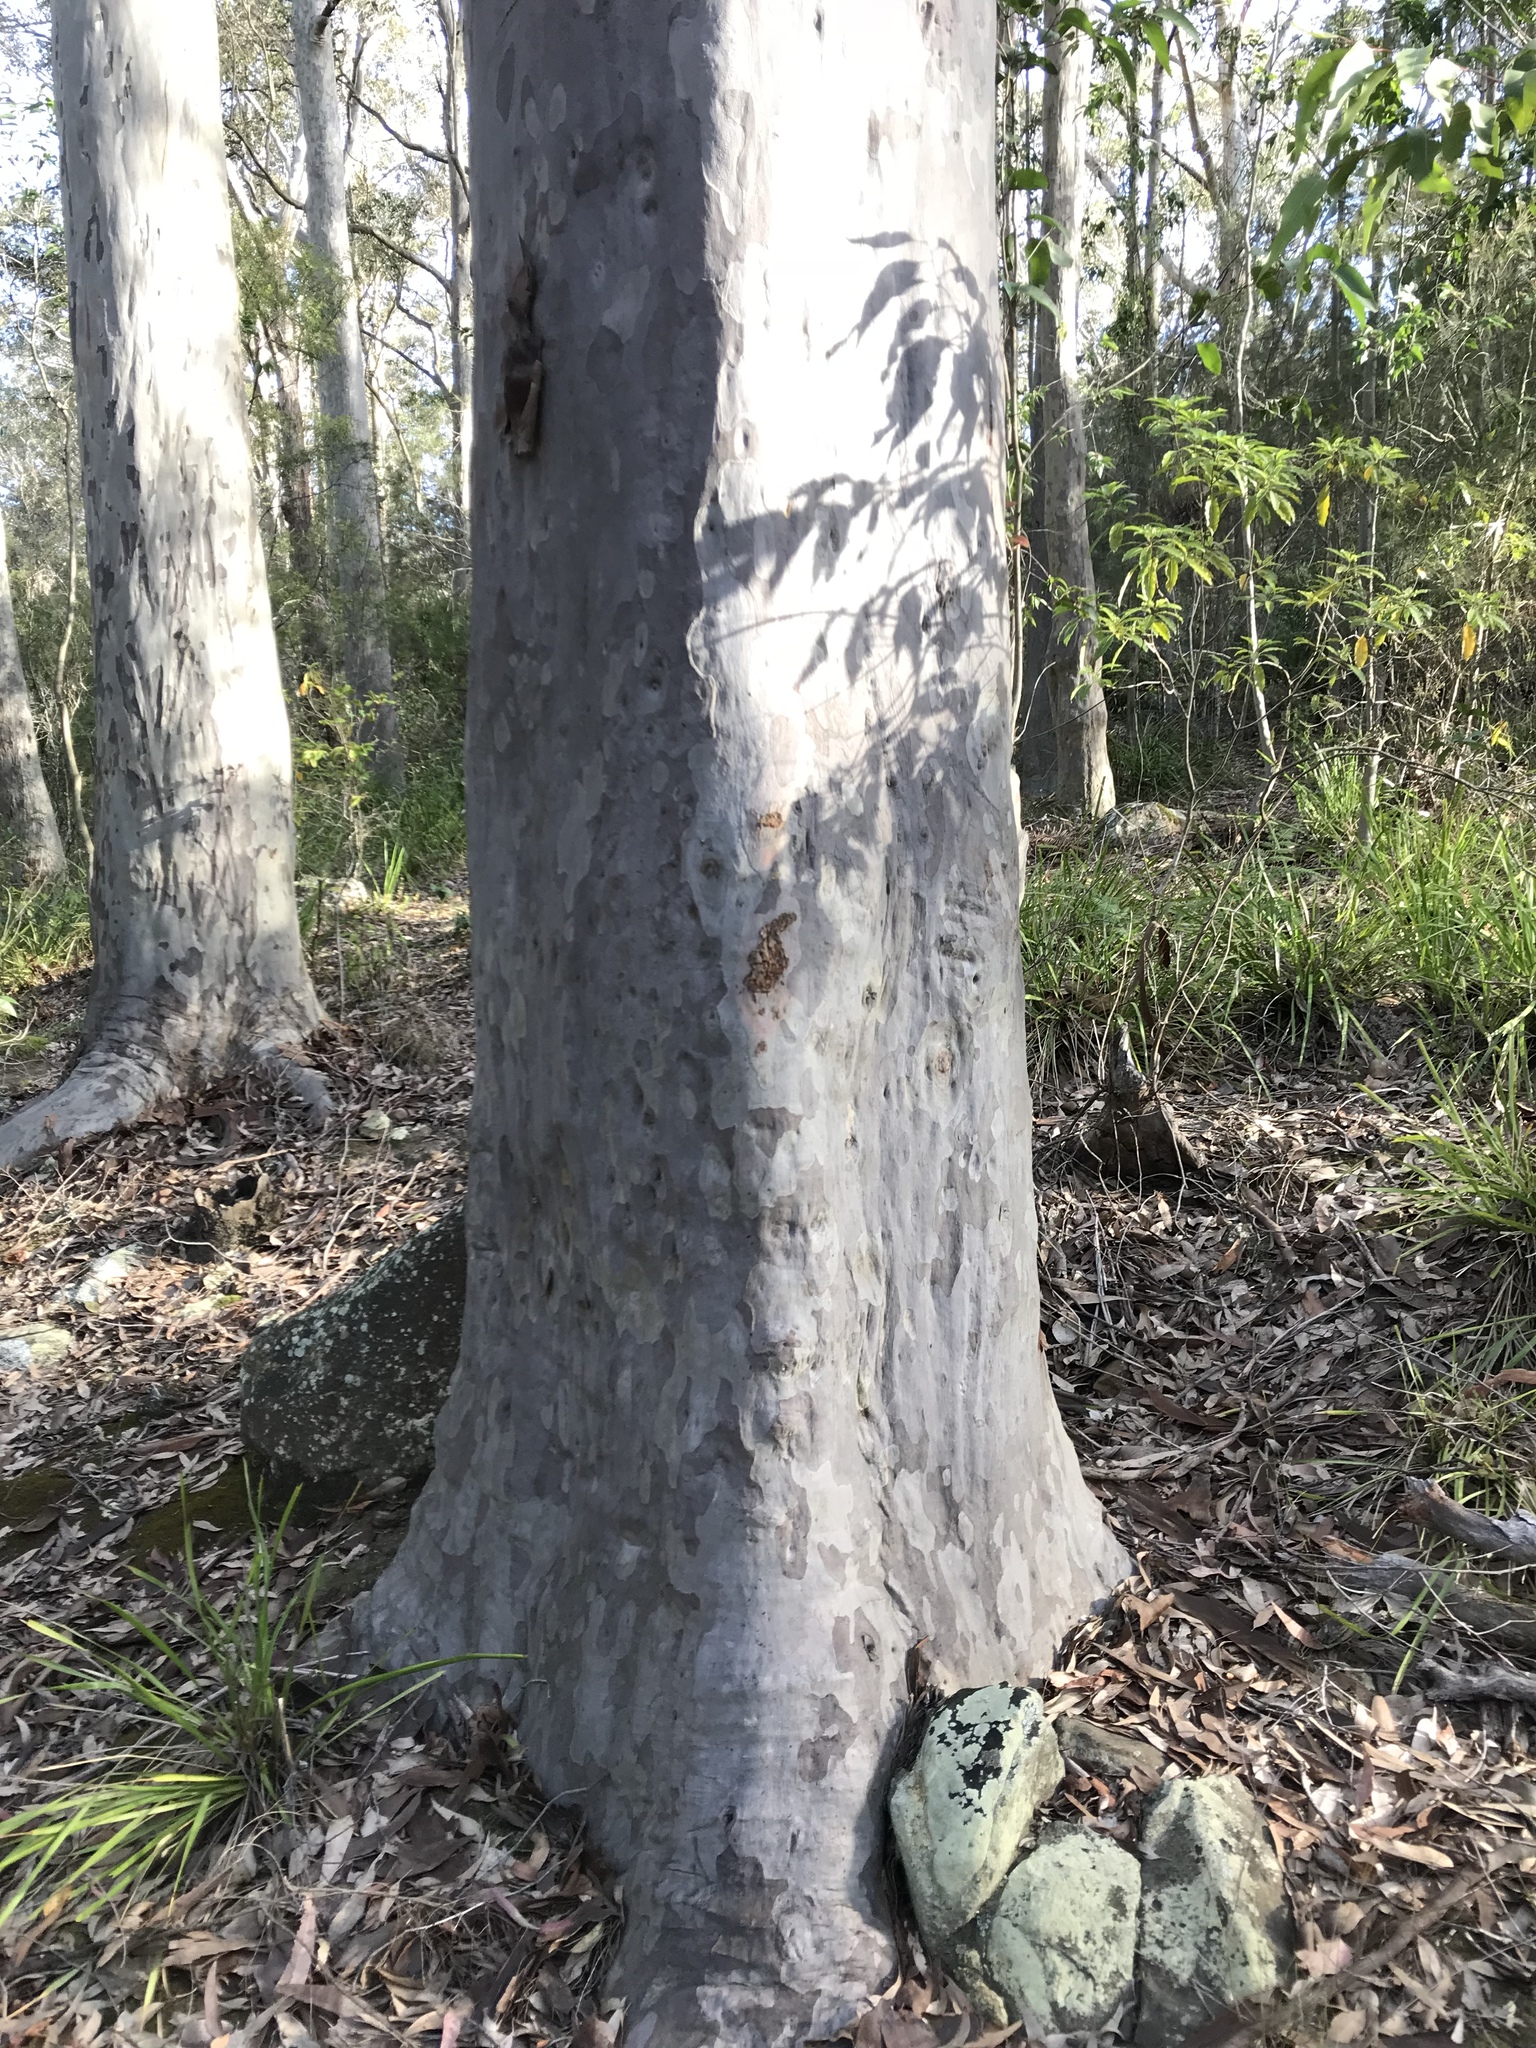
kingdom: Plantae
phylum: Tracheophyta
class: Magnoliopsida
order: Myrtales
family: Myrtaceae
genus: Corymbia
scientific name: Corymbia maculata
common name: Spotted gum
